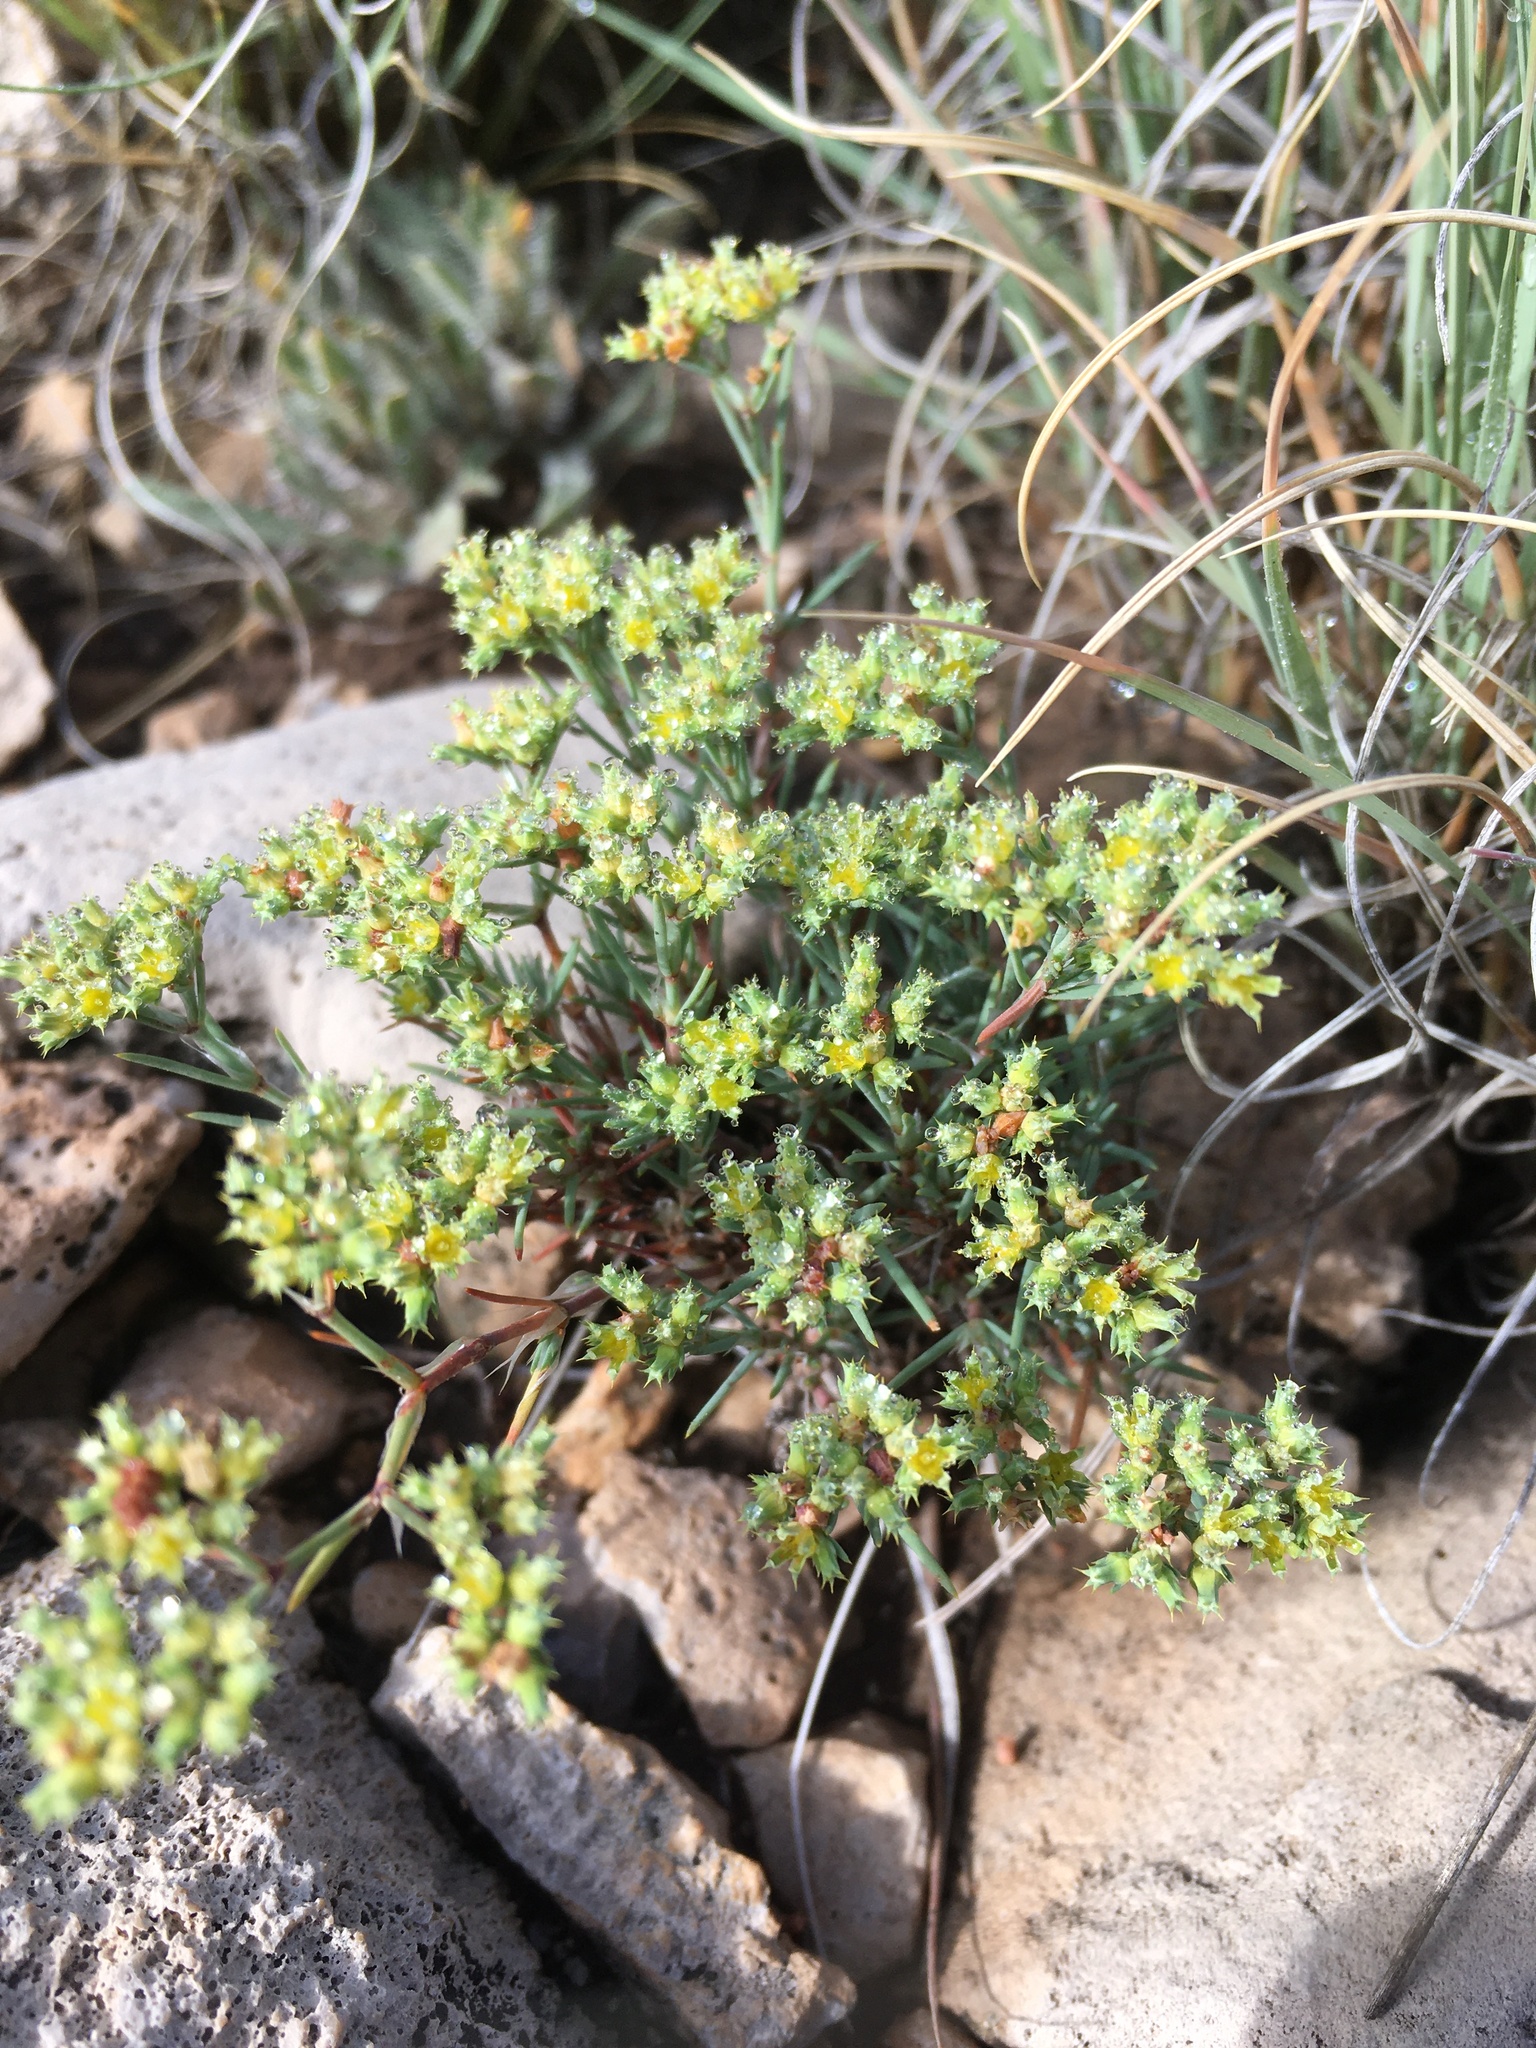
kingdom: Plantae
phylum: Tracheophyta
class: Magnoliopsida
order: Caryophyllales
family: Caryophyllaceae
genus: Paronychia
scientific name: Paronychia jamesii
